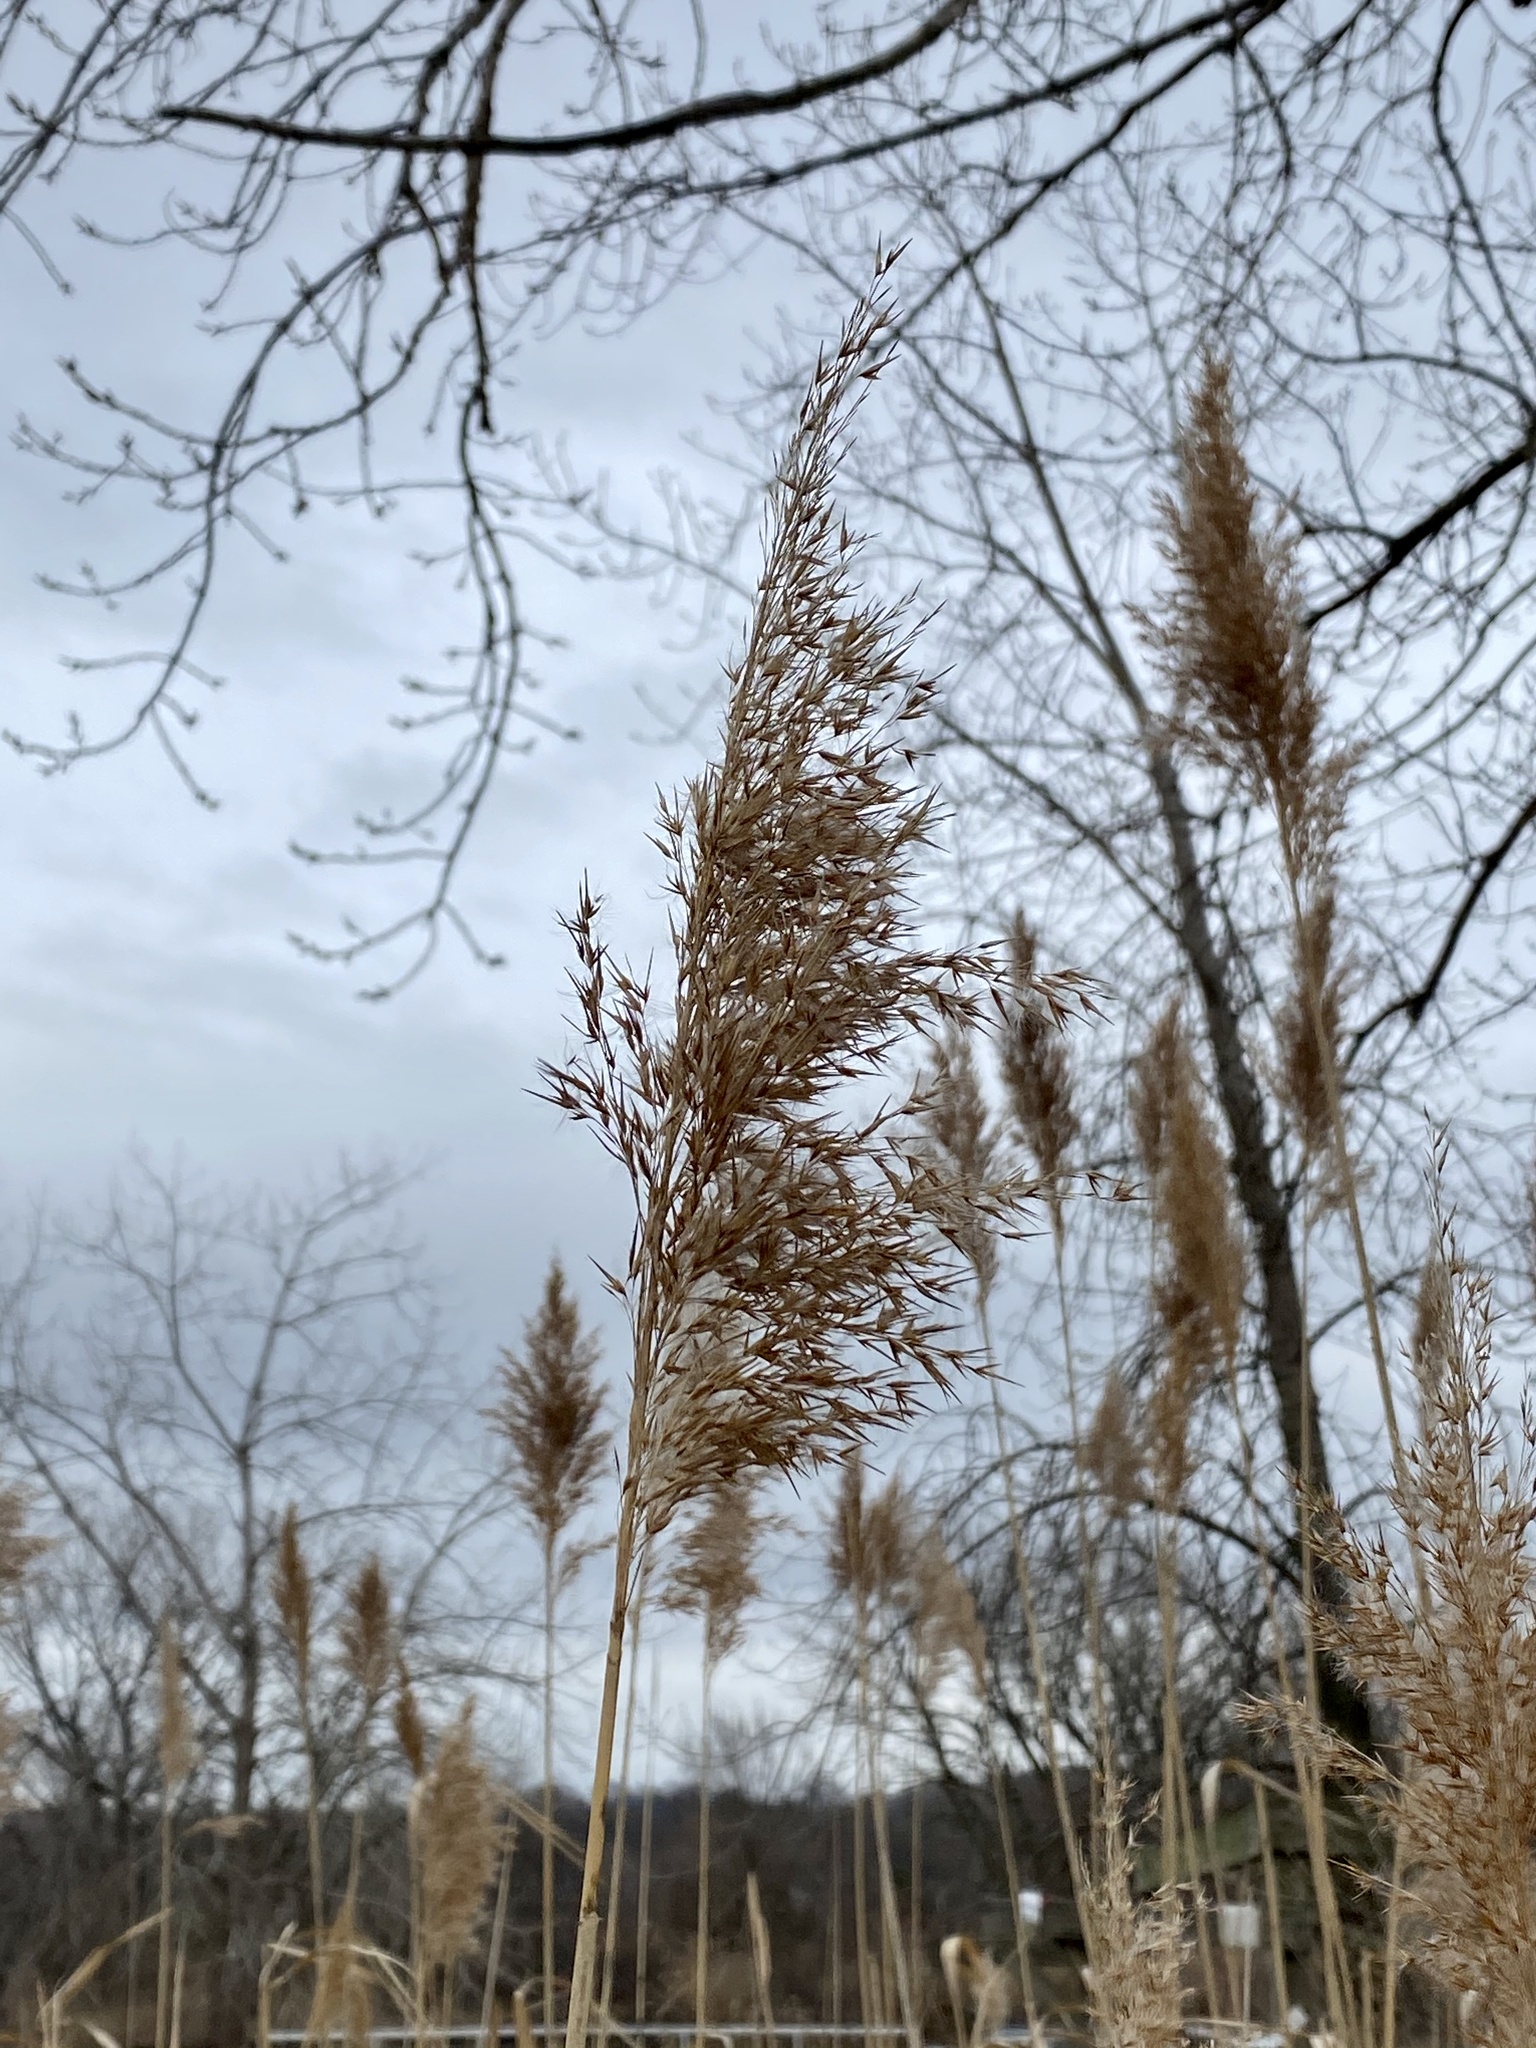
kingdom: Plantae
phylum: Tracheophyta
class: Liliopsida
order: Poales
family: Poaceae
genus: Phragmites
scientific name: Phragmites australis
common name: Common reed
